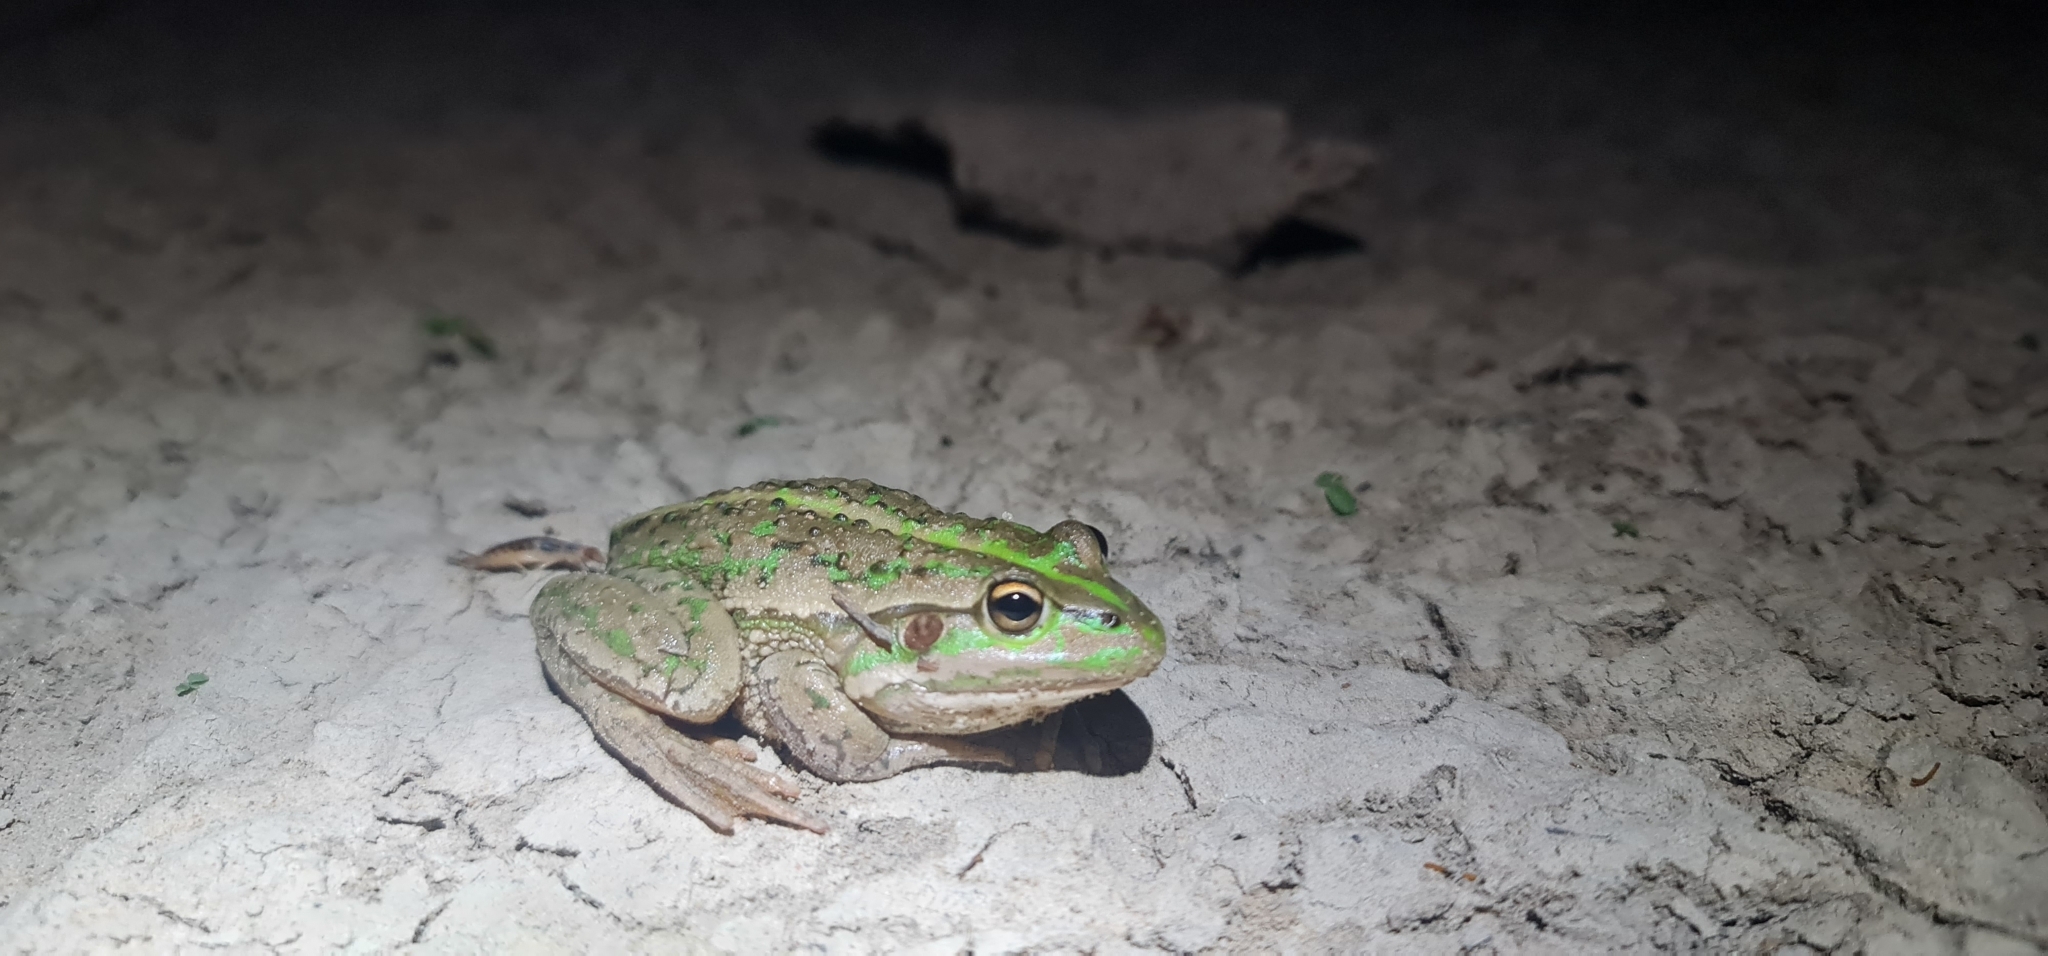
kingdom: Animalia
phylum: Chordata
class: Amphibia
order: Anura
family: Pelodryadidae
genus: Ranoidea
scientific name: Ranoidea raniformis
